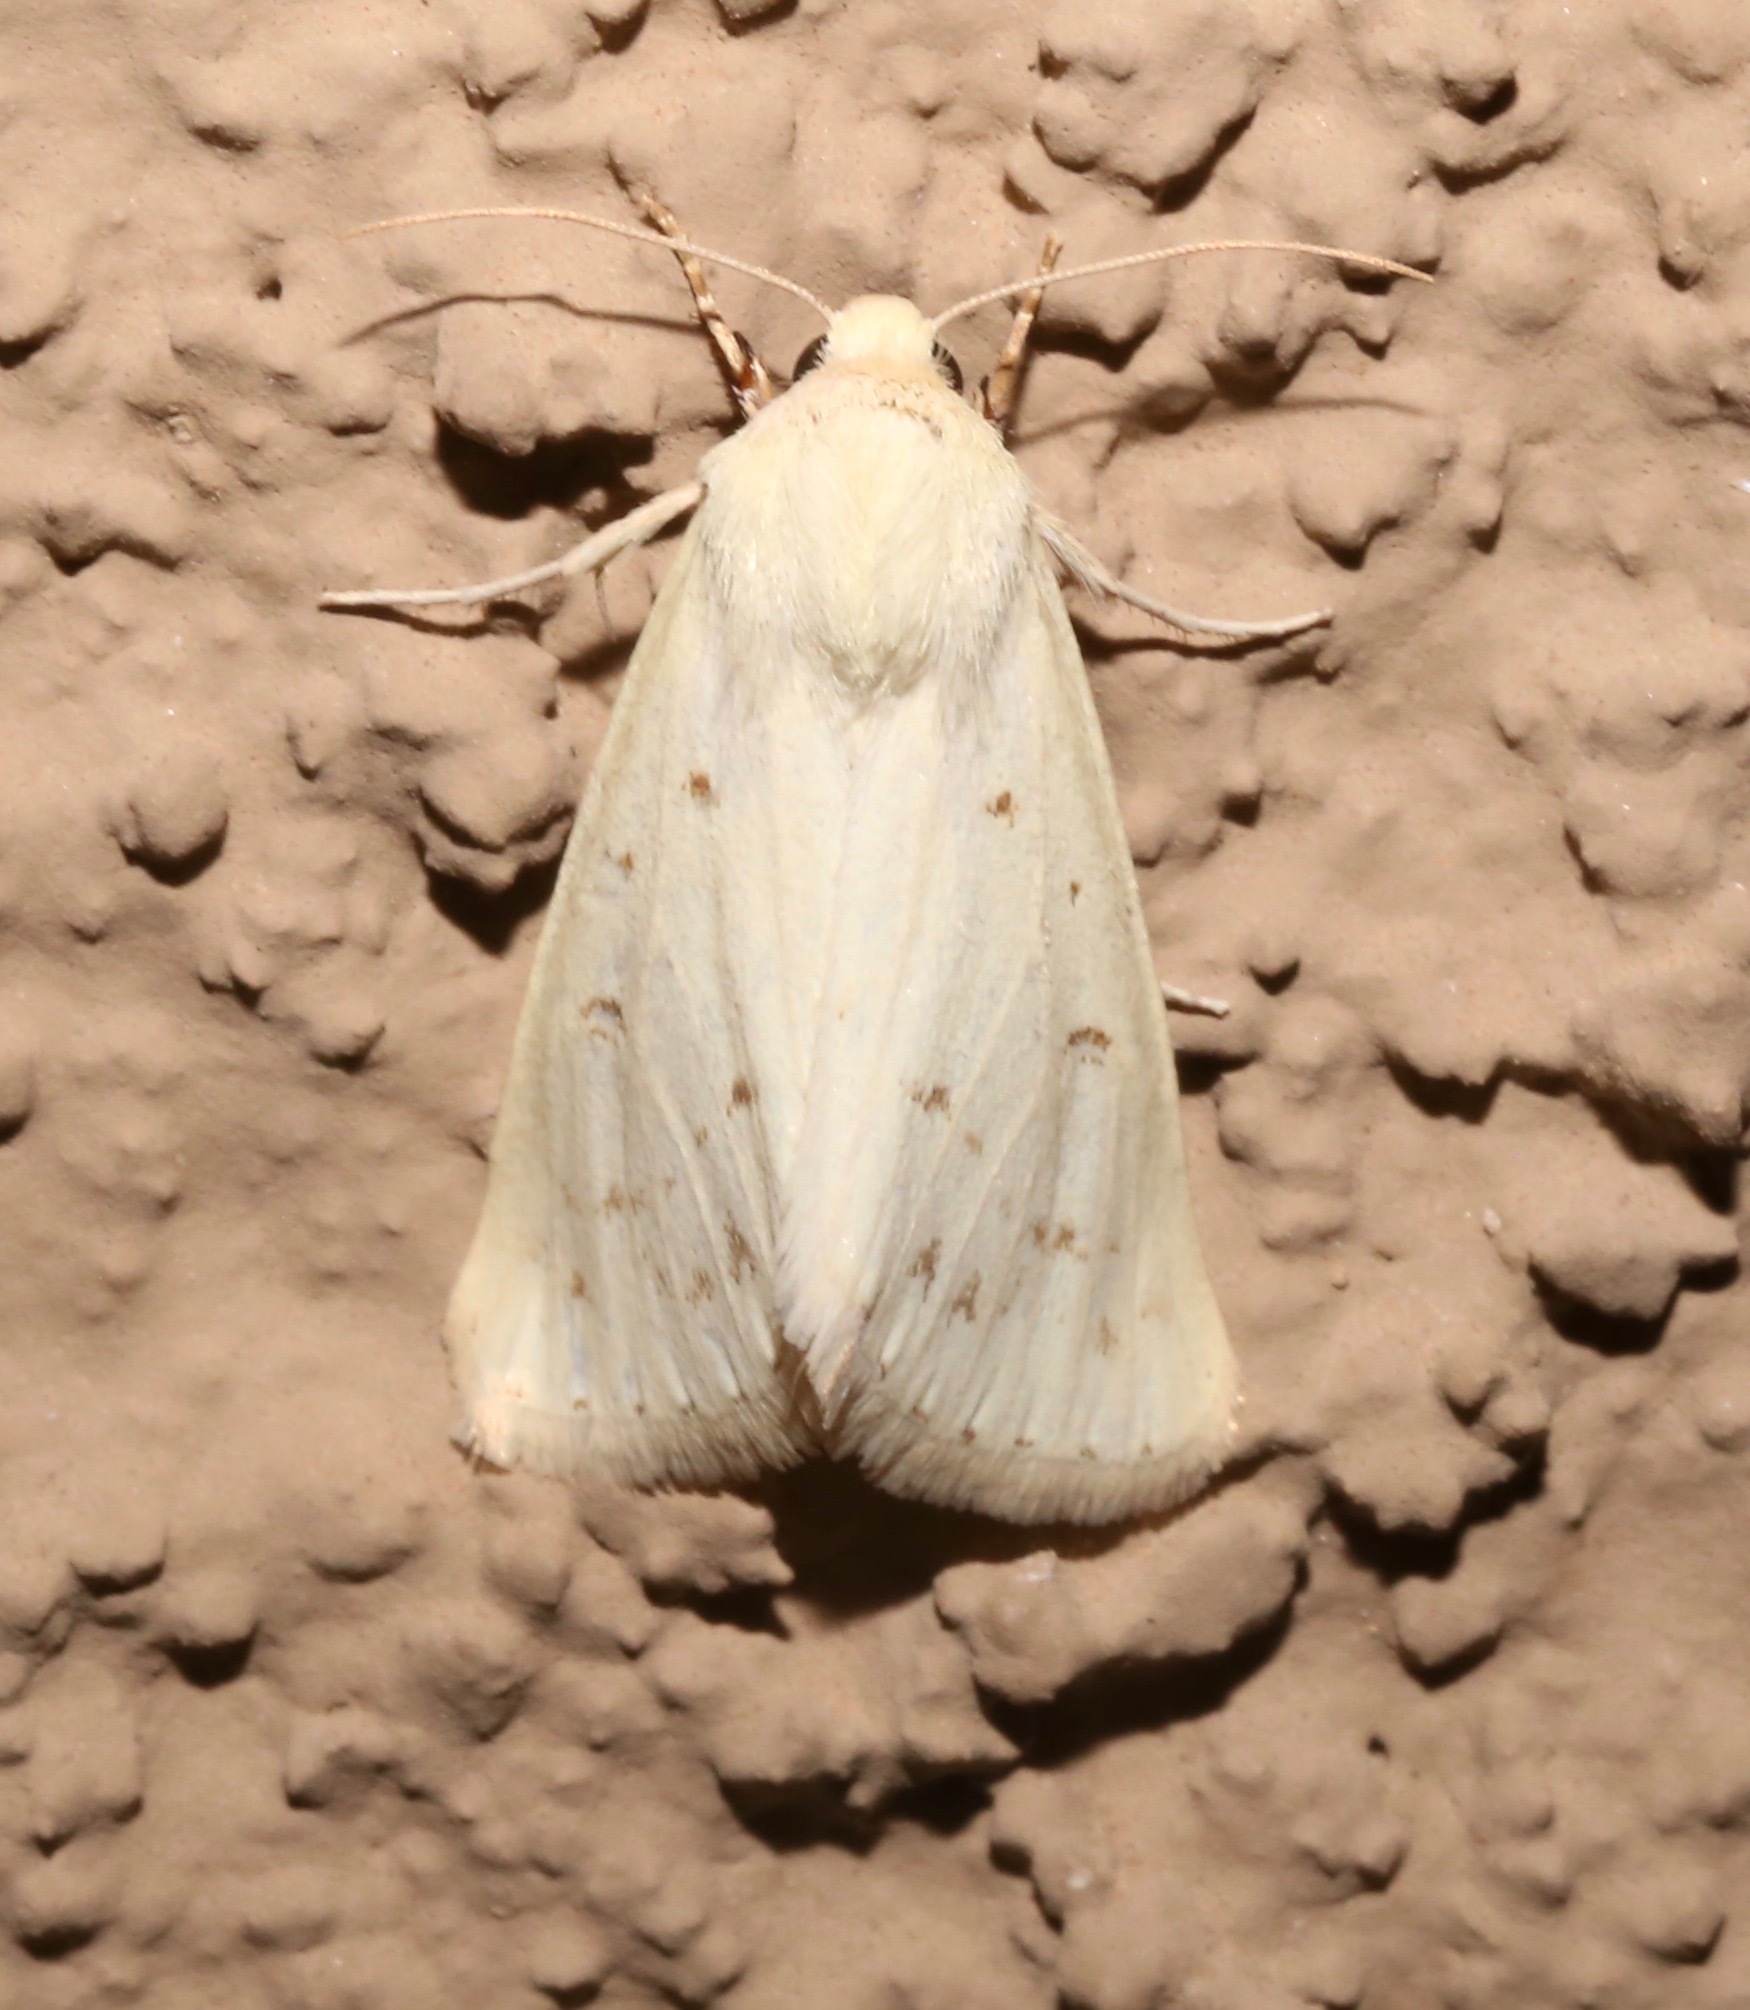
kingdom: Animalia
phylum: Arthropoda
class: Insecta
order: Lepidoptera
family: Noctuidae
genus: Schinia
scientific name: Schinia luxa
